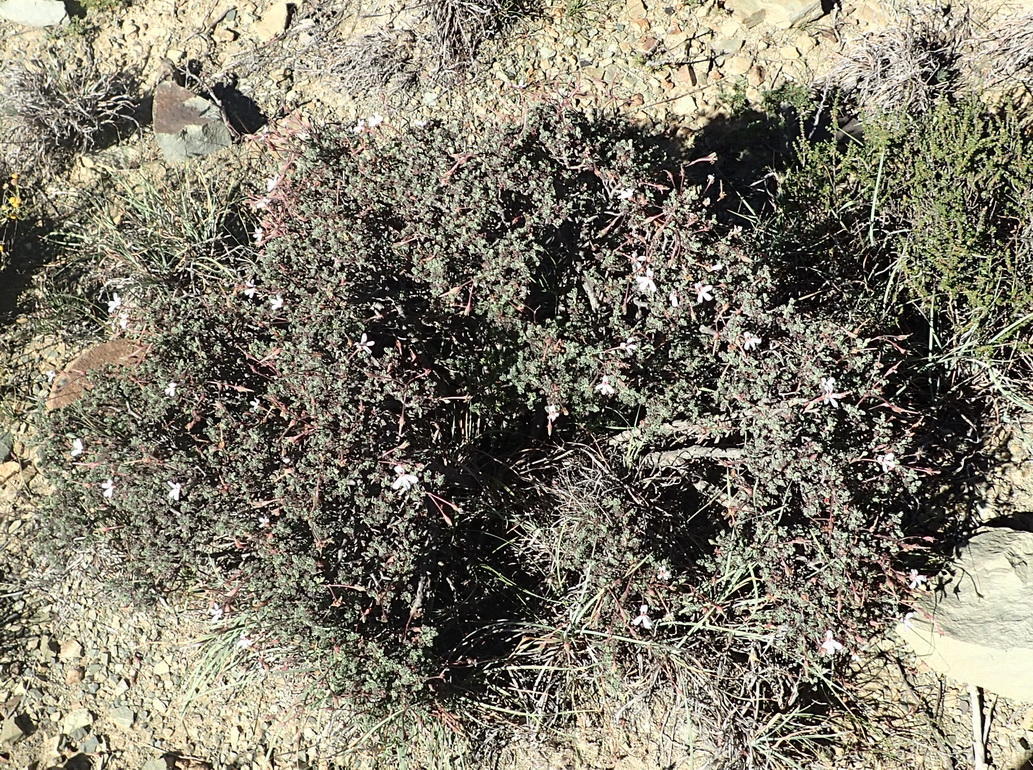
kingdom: Plantae
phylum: Tracheophyta
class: Magnoliopsida
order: Geraniales
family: Geraniaceae
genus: Pelargonium
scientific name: Pelargonium abrotanifolium
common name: Southernwood geranium
